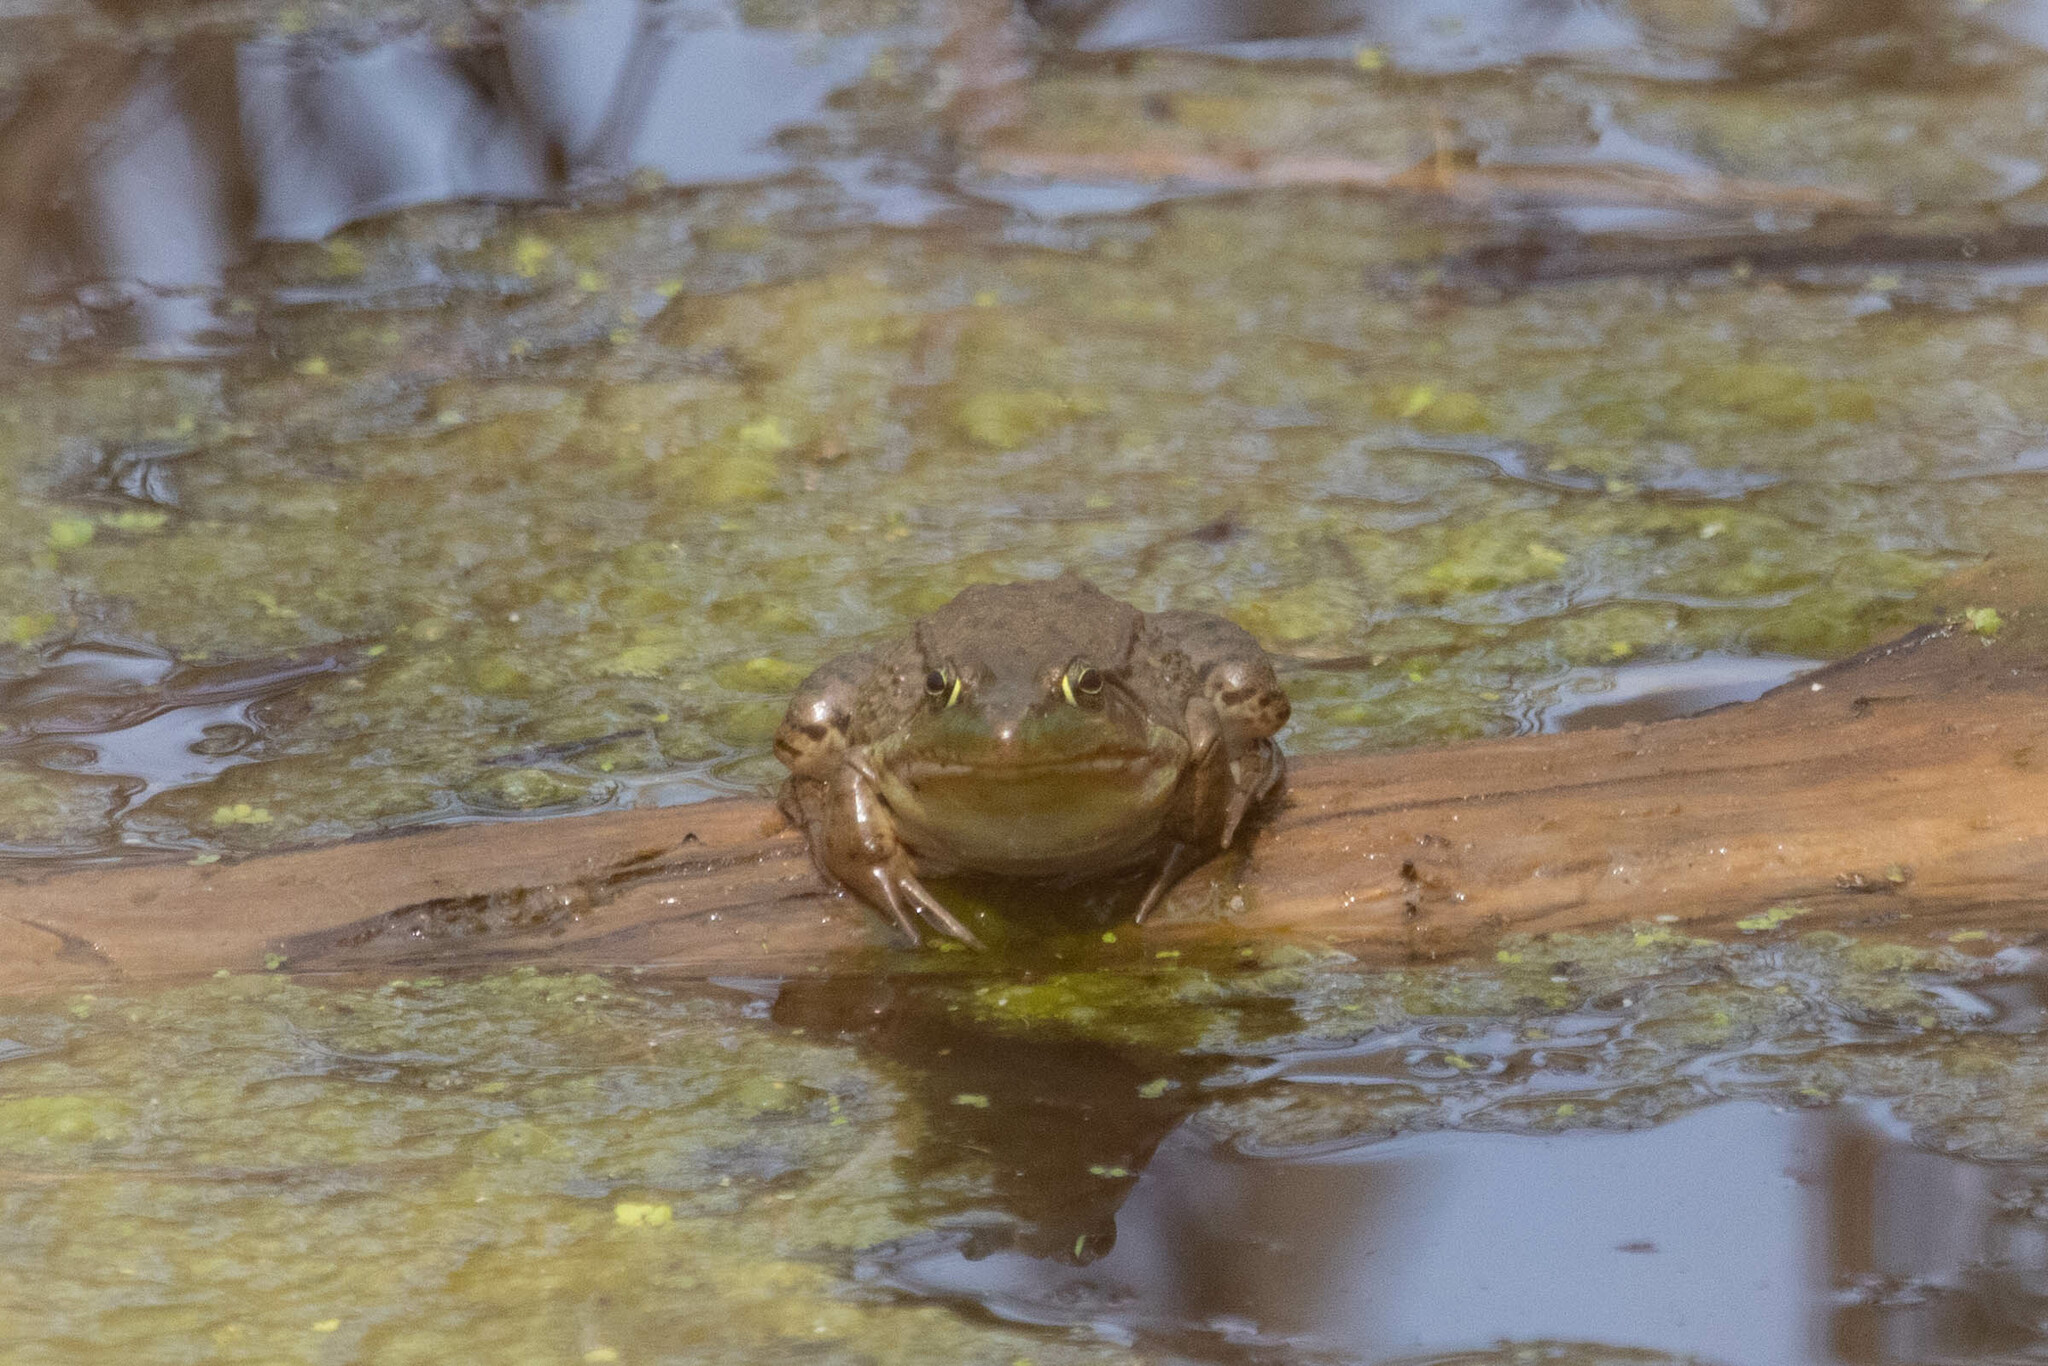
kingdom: Animalia
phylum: Chordata
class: Amphibia
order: Anura
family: Ranidae
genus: Lithobates
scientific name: Lithobates clamitans
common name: Green frog
